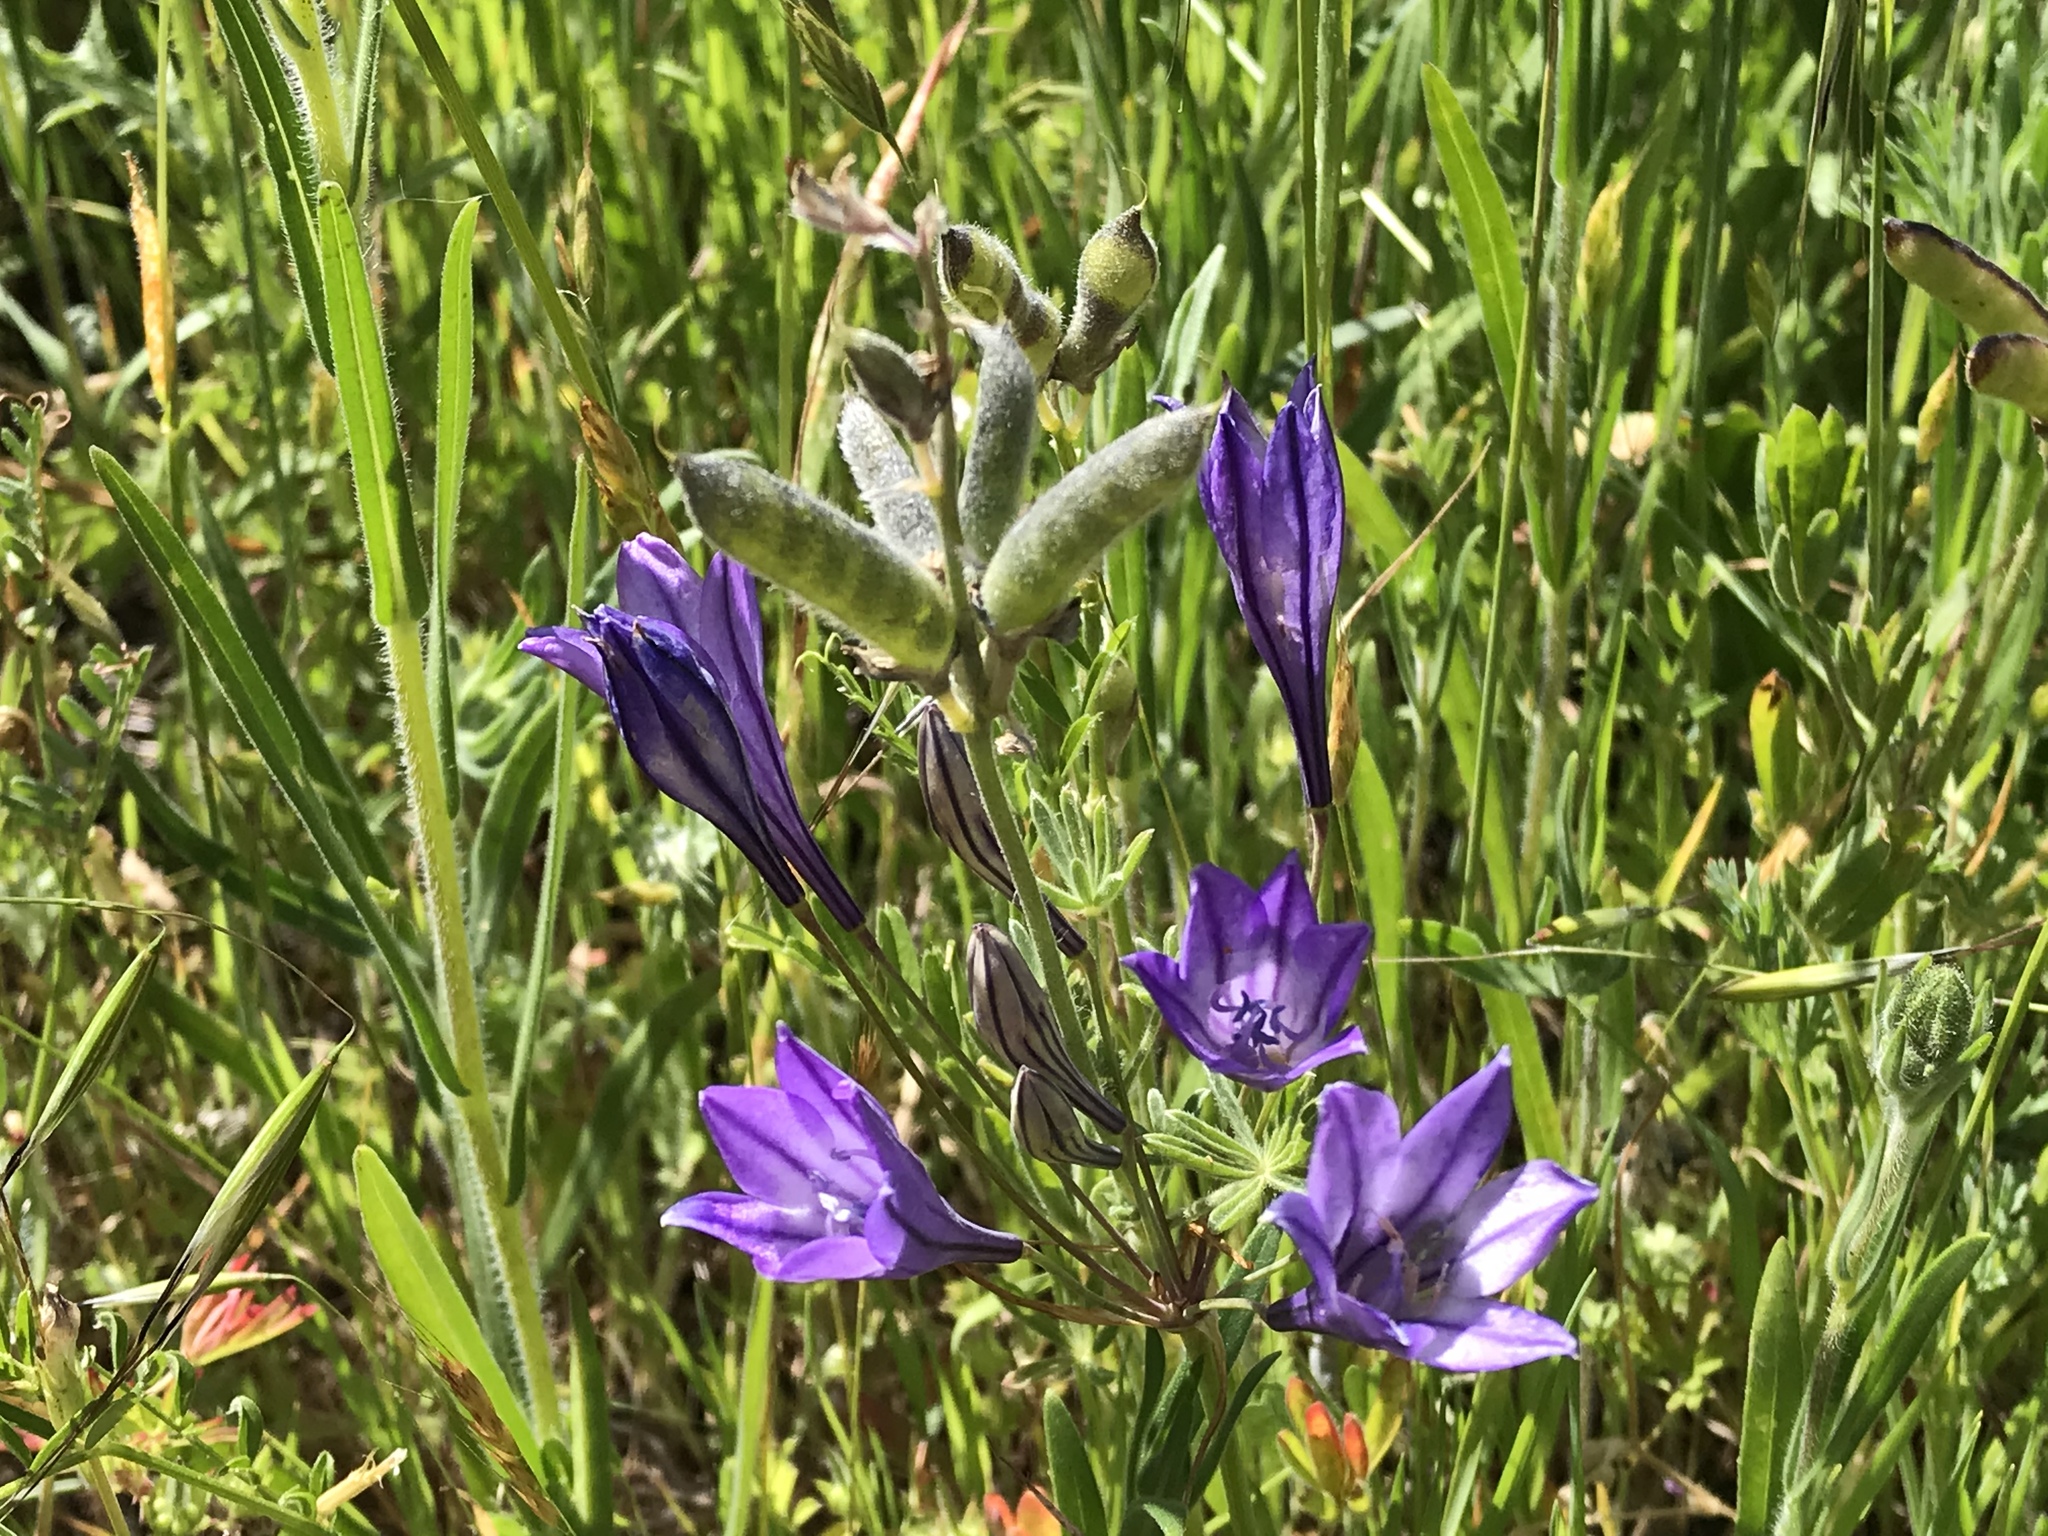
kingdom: Plantae
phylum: Tracheophyta
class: Liliopsida
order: Asparagales
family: Asparagaceae
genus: Triteleia
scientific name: Triteleia laxa
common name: Triplet-lily
